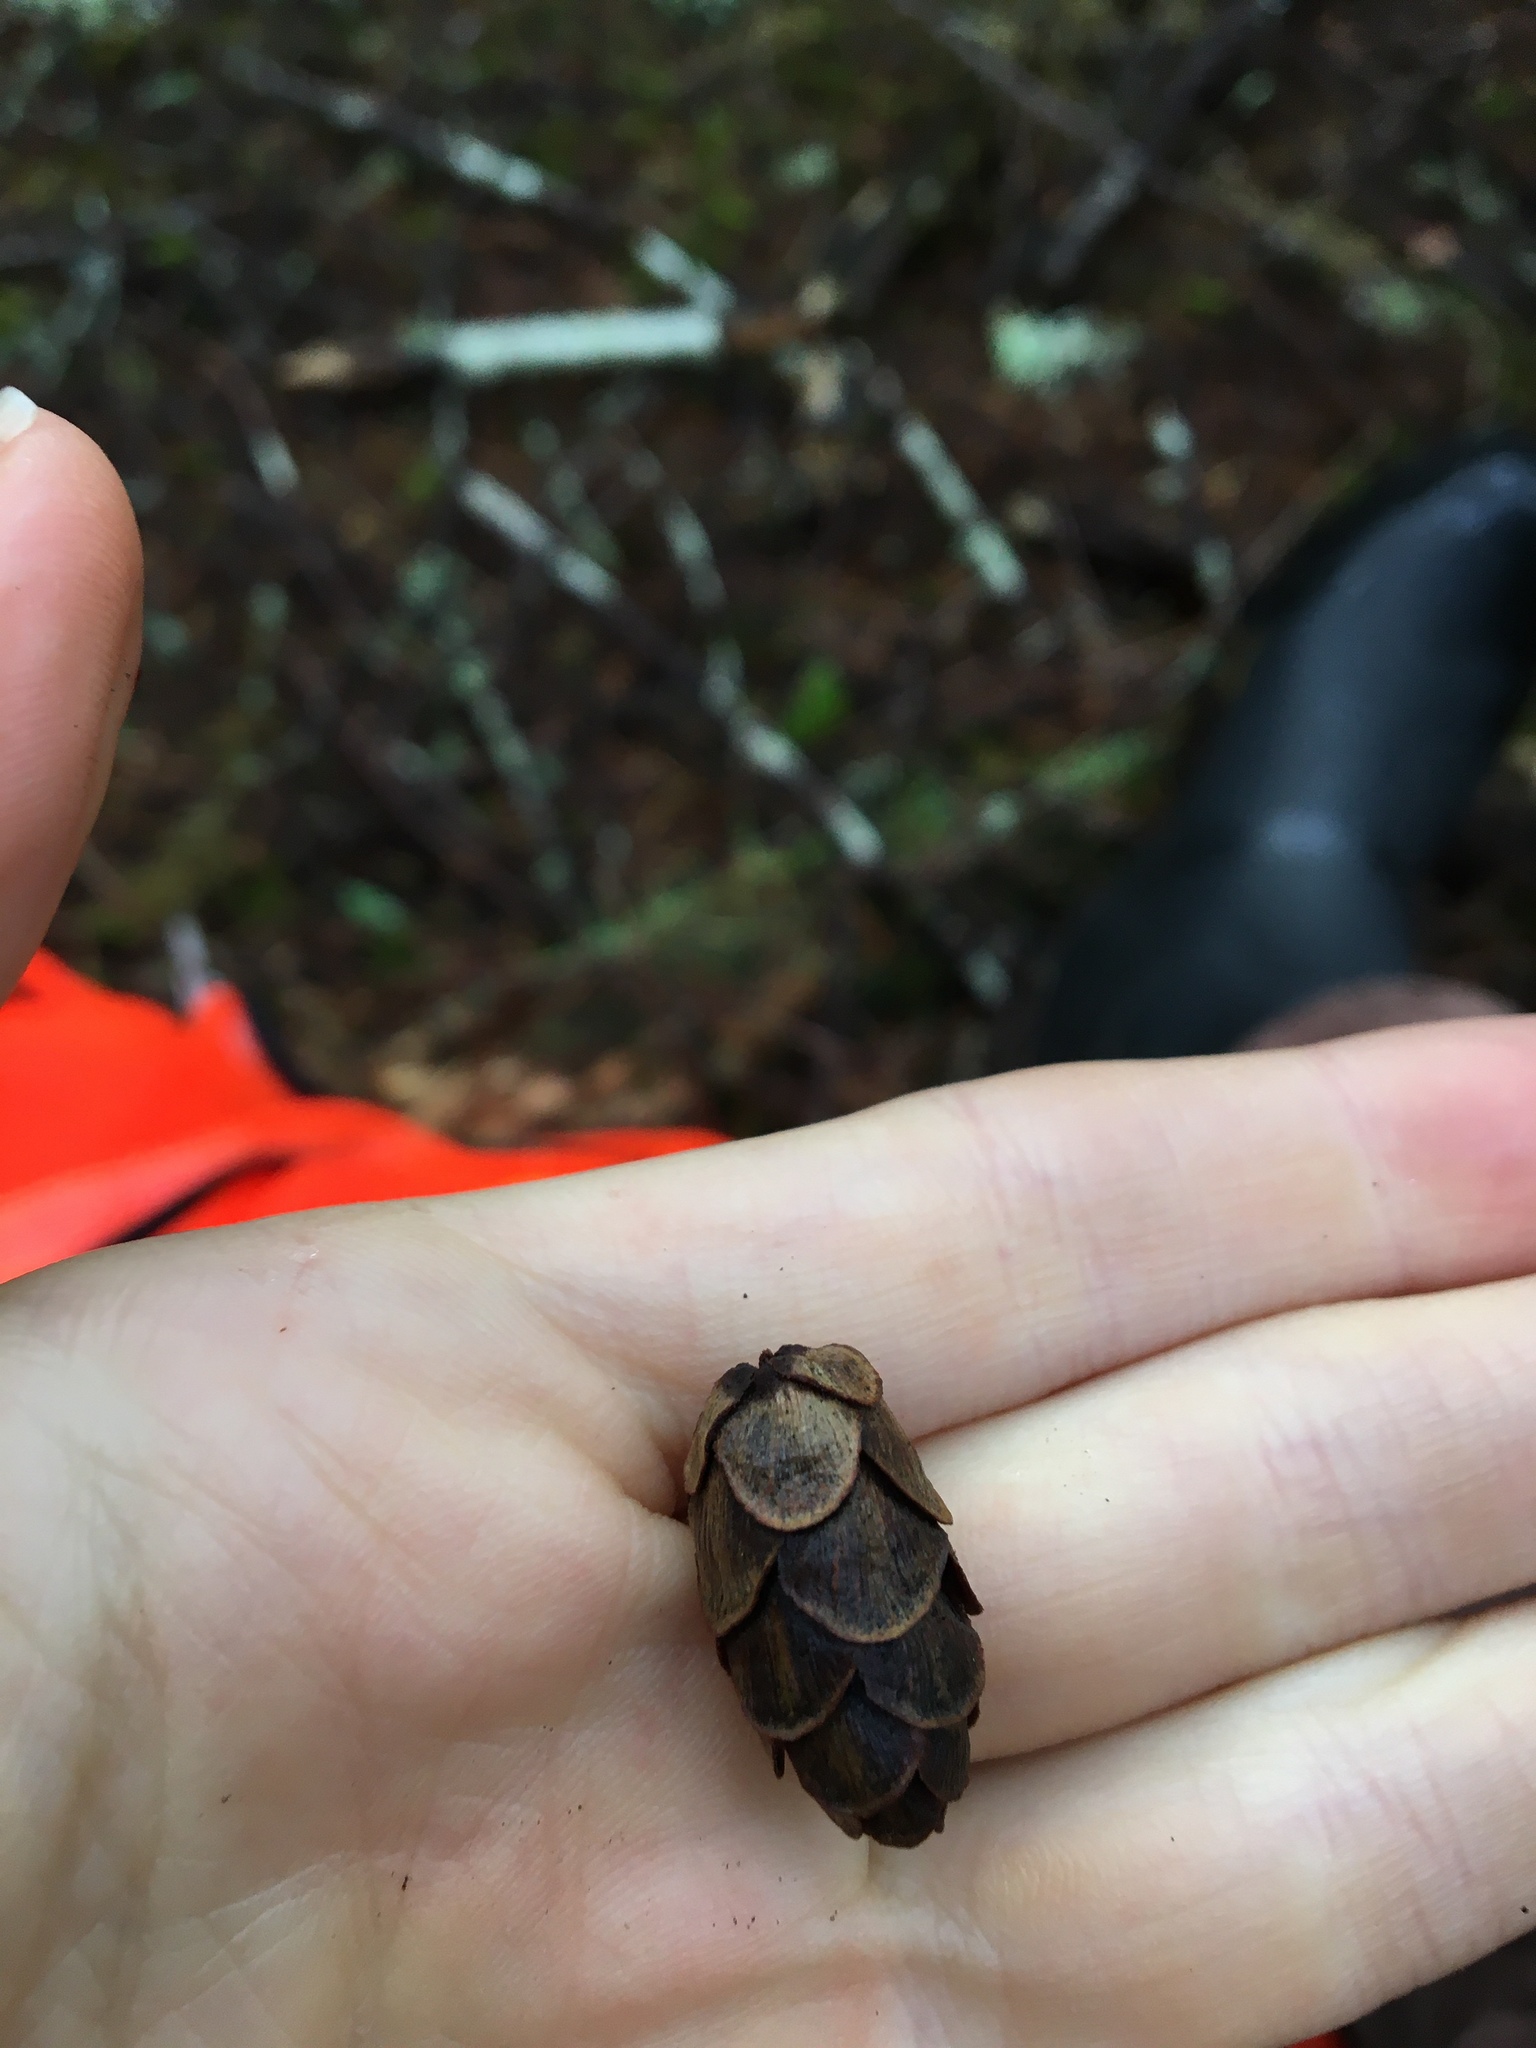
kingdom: Plantae
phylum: Tracheophyta
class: Pinopsida
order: Pinales
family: Pinaceae
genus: Tsuga
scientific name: Tsuga heterophylla
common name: Western hemlock
